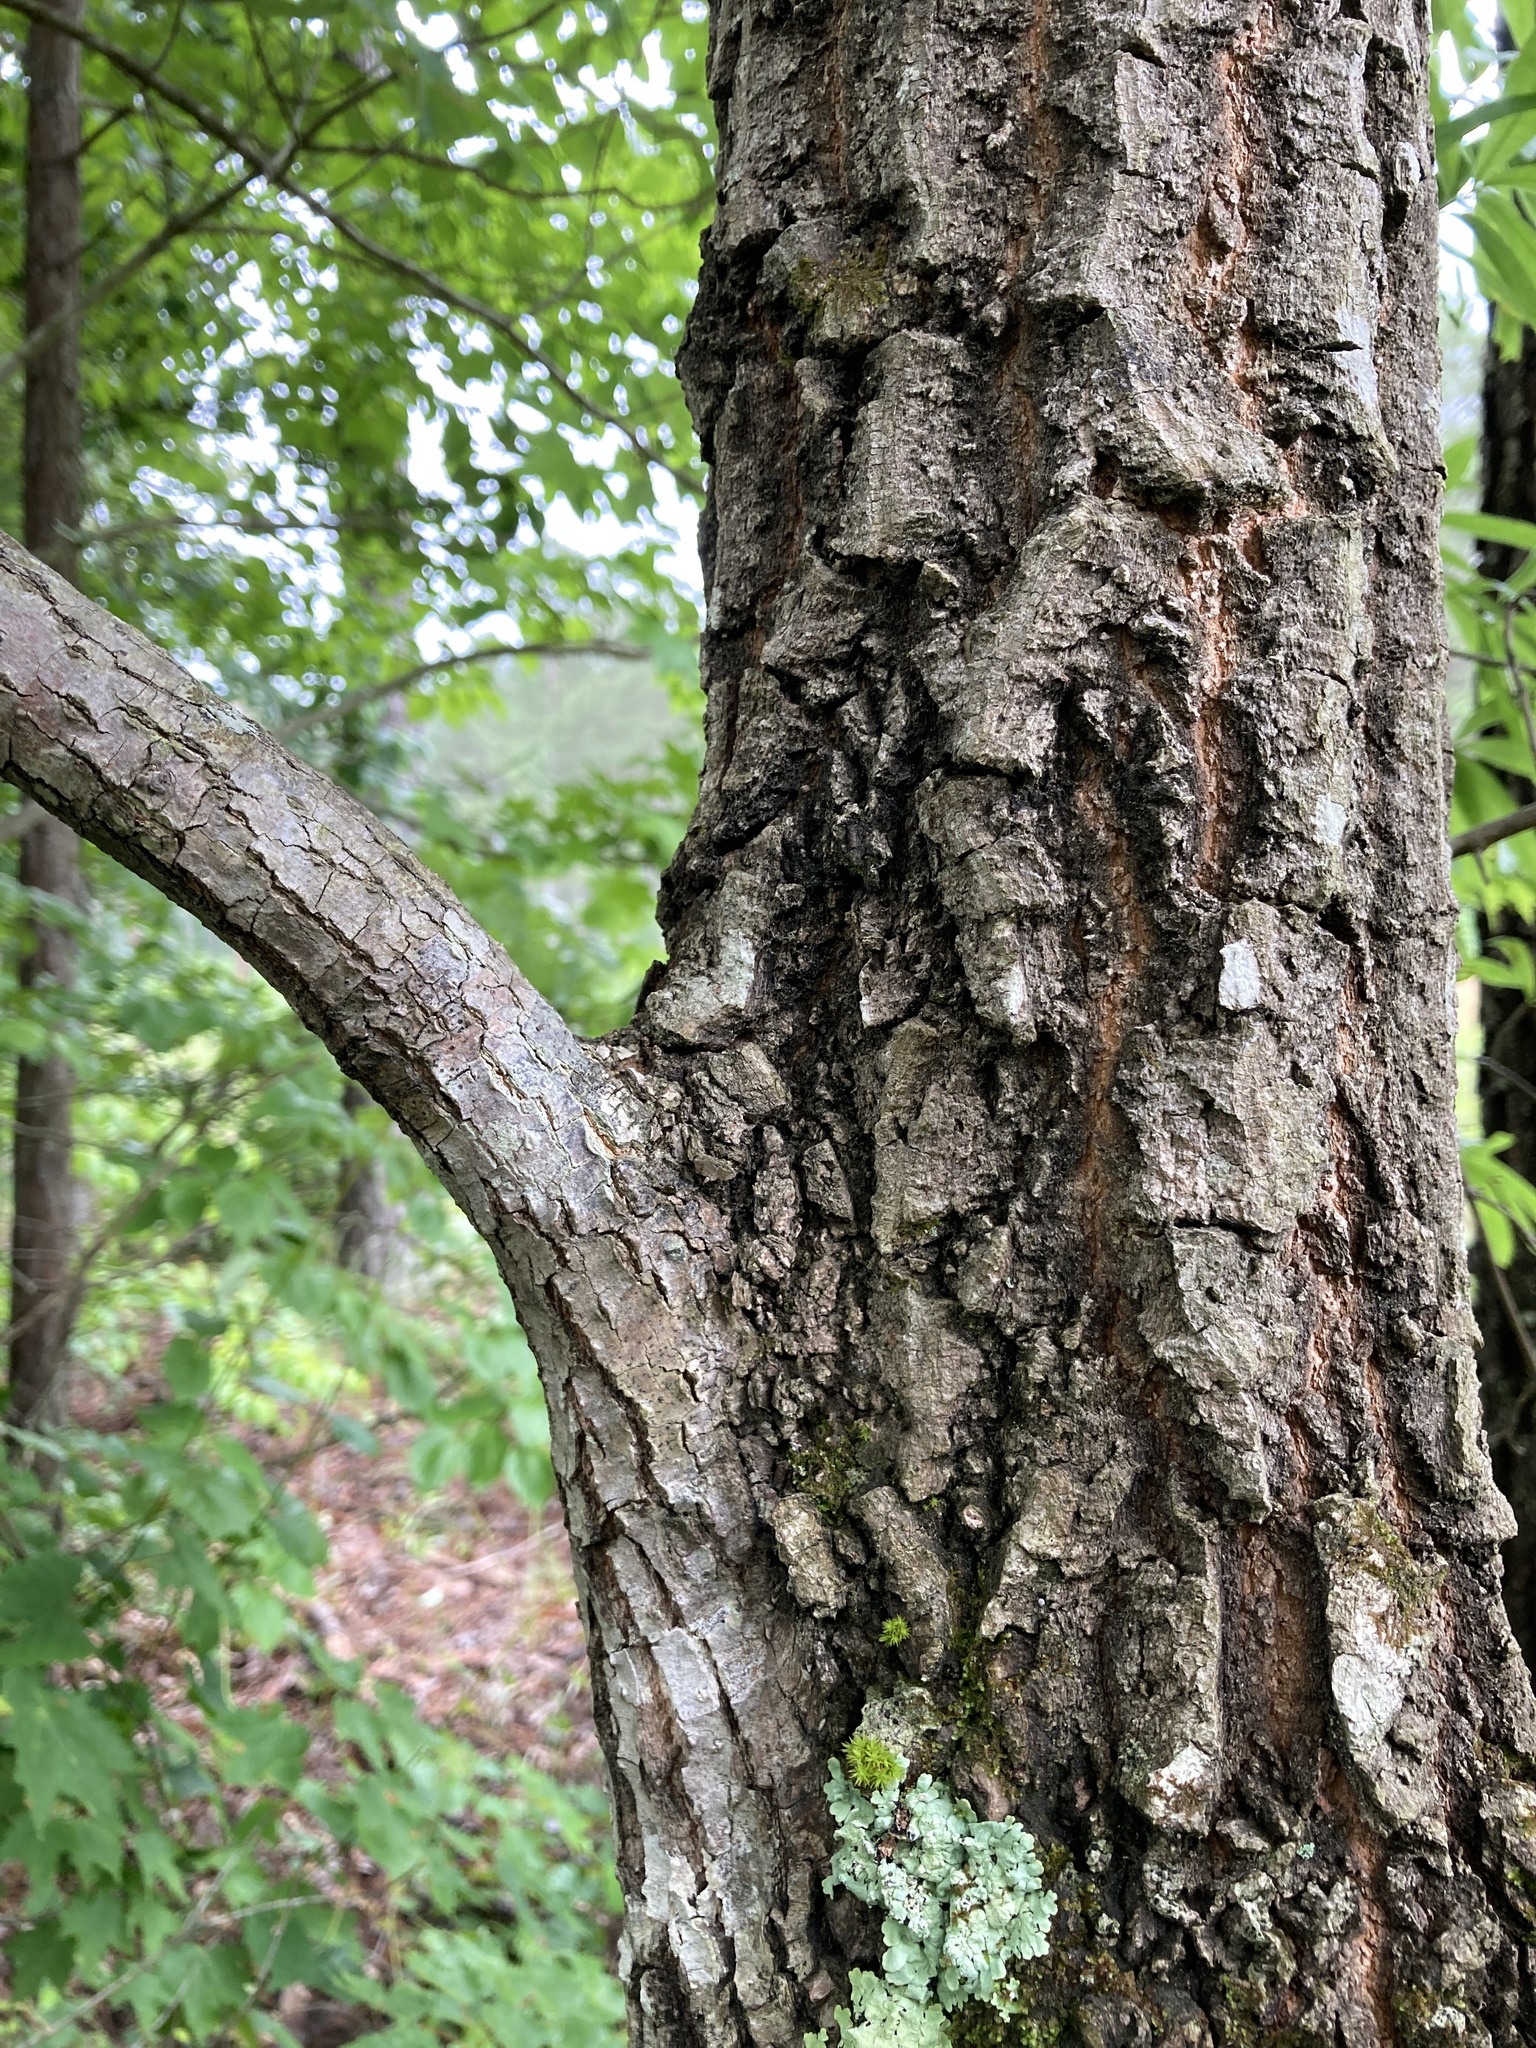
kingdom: Plantae
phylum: Tracheophyta
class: Magnoliopsida
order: Ericales
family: Ebenaceae
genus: Diospyros
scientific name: Diospyros virginiana
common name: Persimmon
